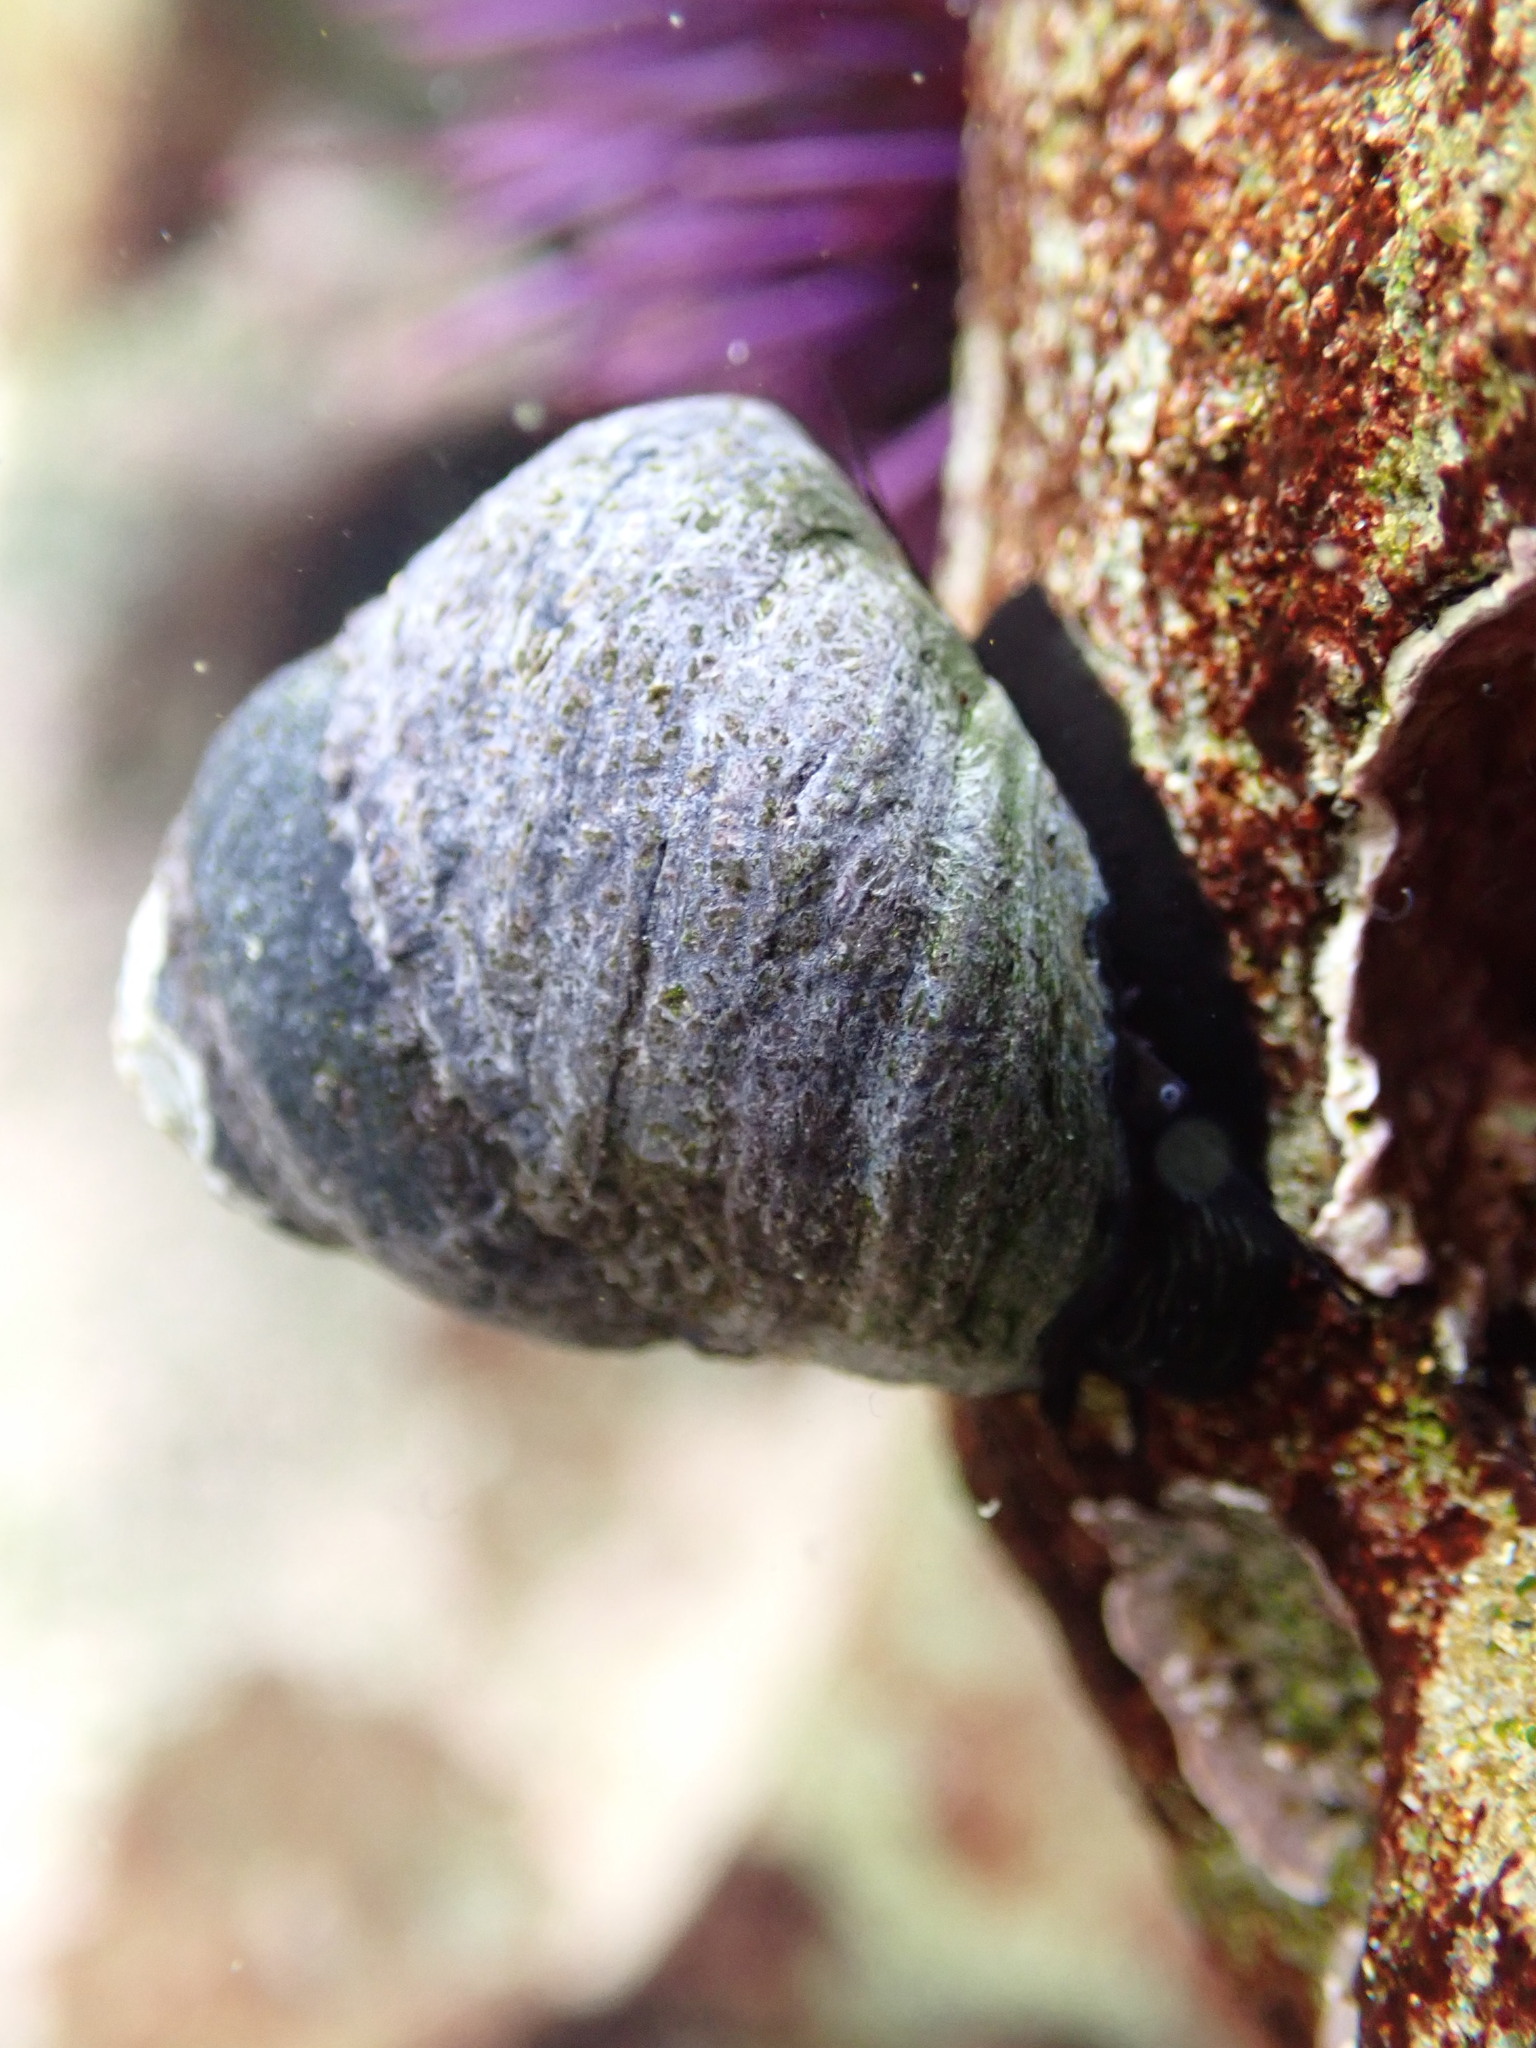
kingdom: Animalia
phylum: Mollusca
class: Gastropoda
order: Trochida
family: Tegulidae
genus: Tegula
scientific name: Tegula funebralis
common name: Black tegula
